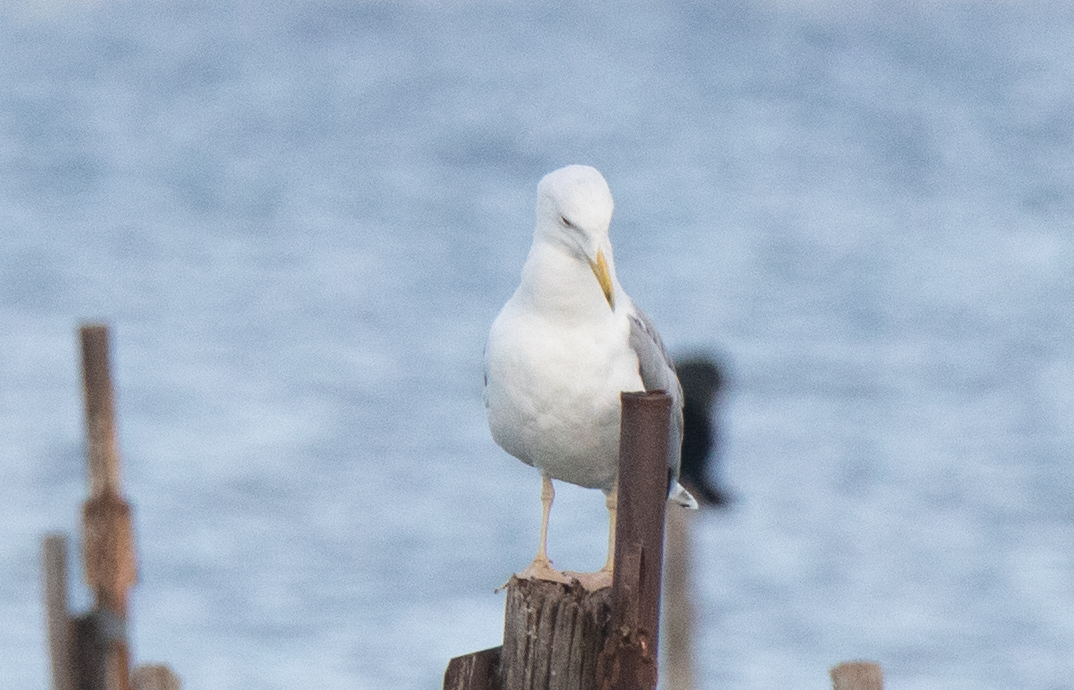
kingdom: Animalia
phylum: Chordata
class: Aves
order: Charadriiformes
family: Laridae
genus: Larus
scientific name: Larus michahellis
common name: Yellow-legged gull
